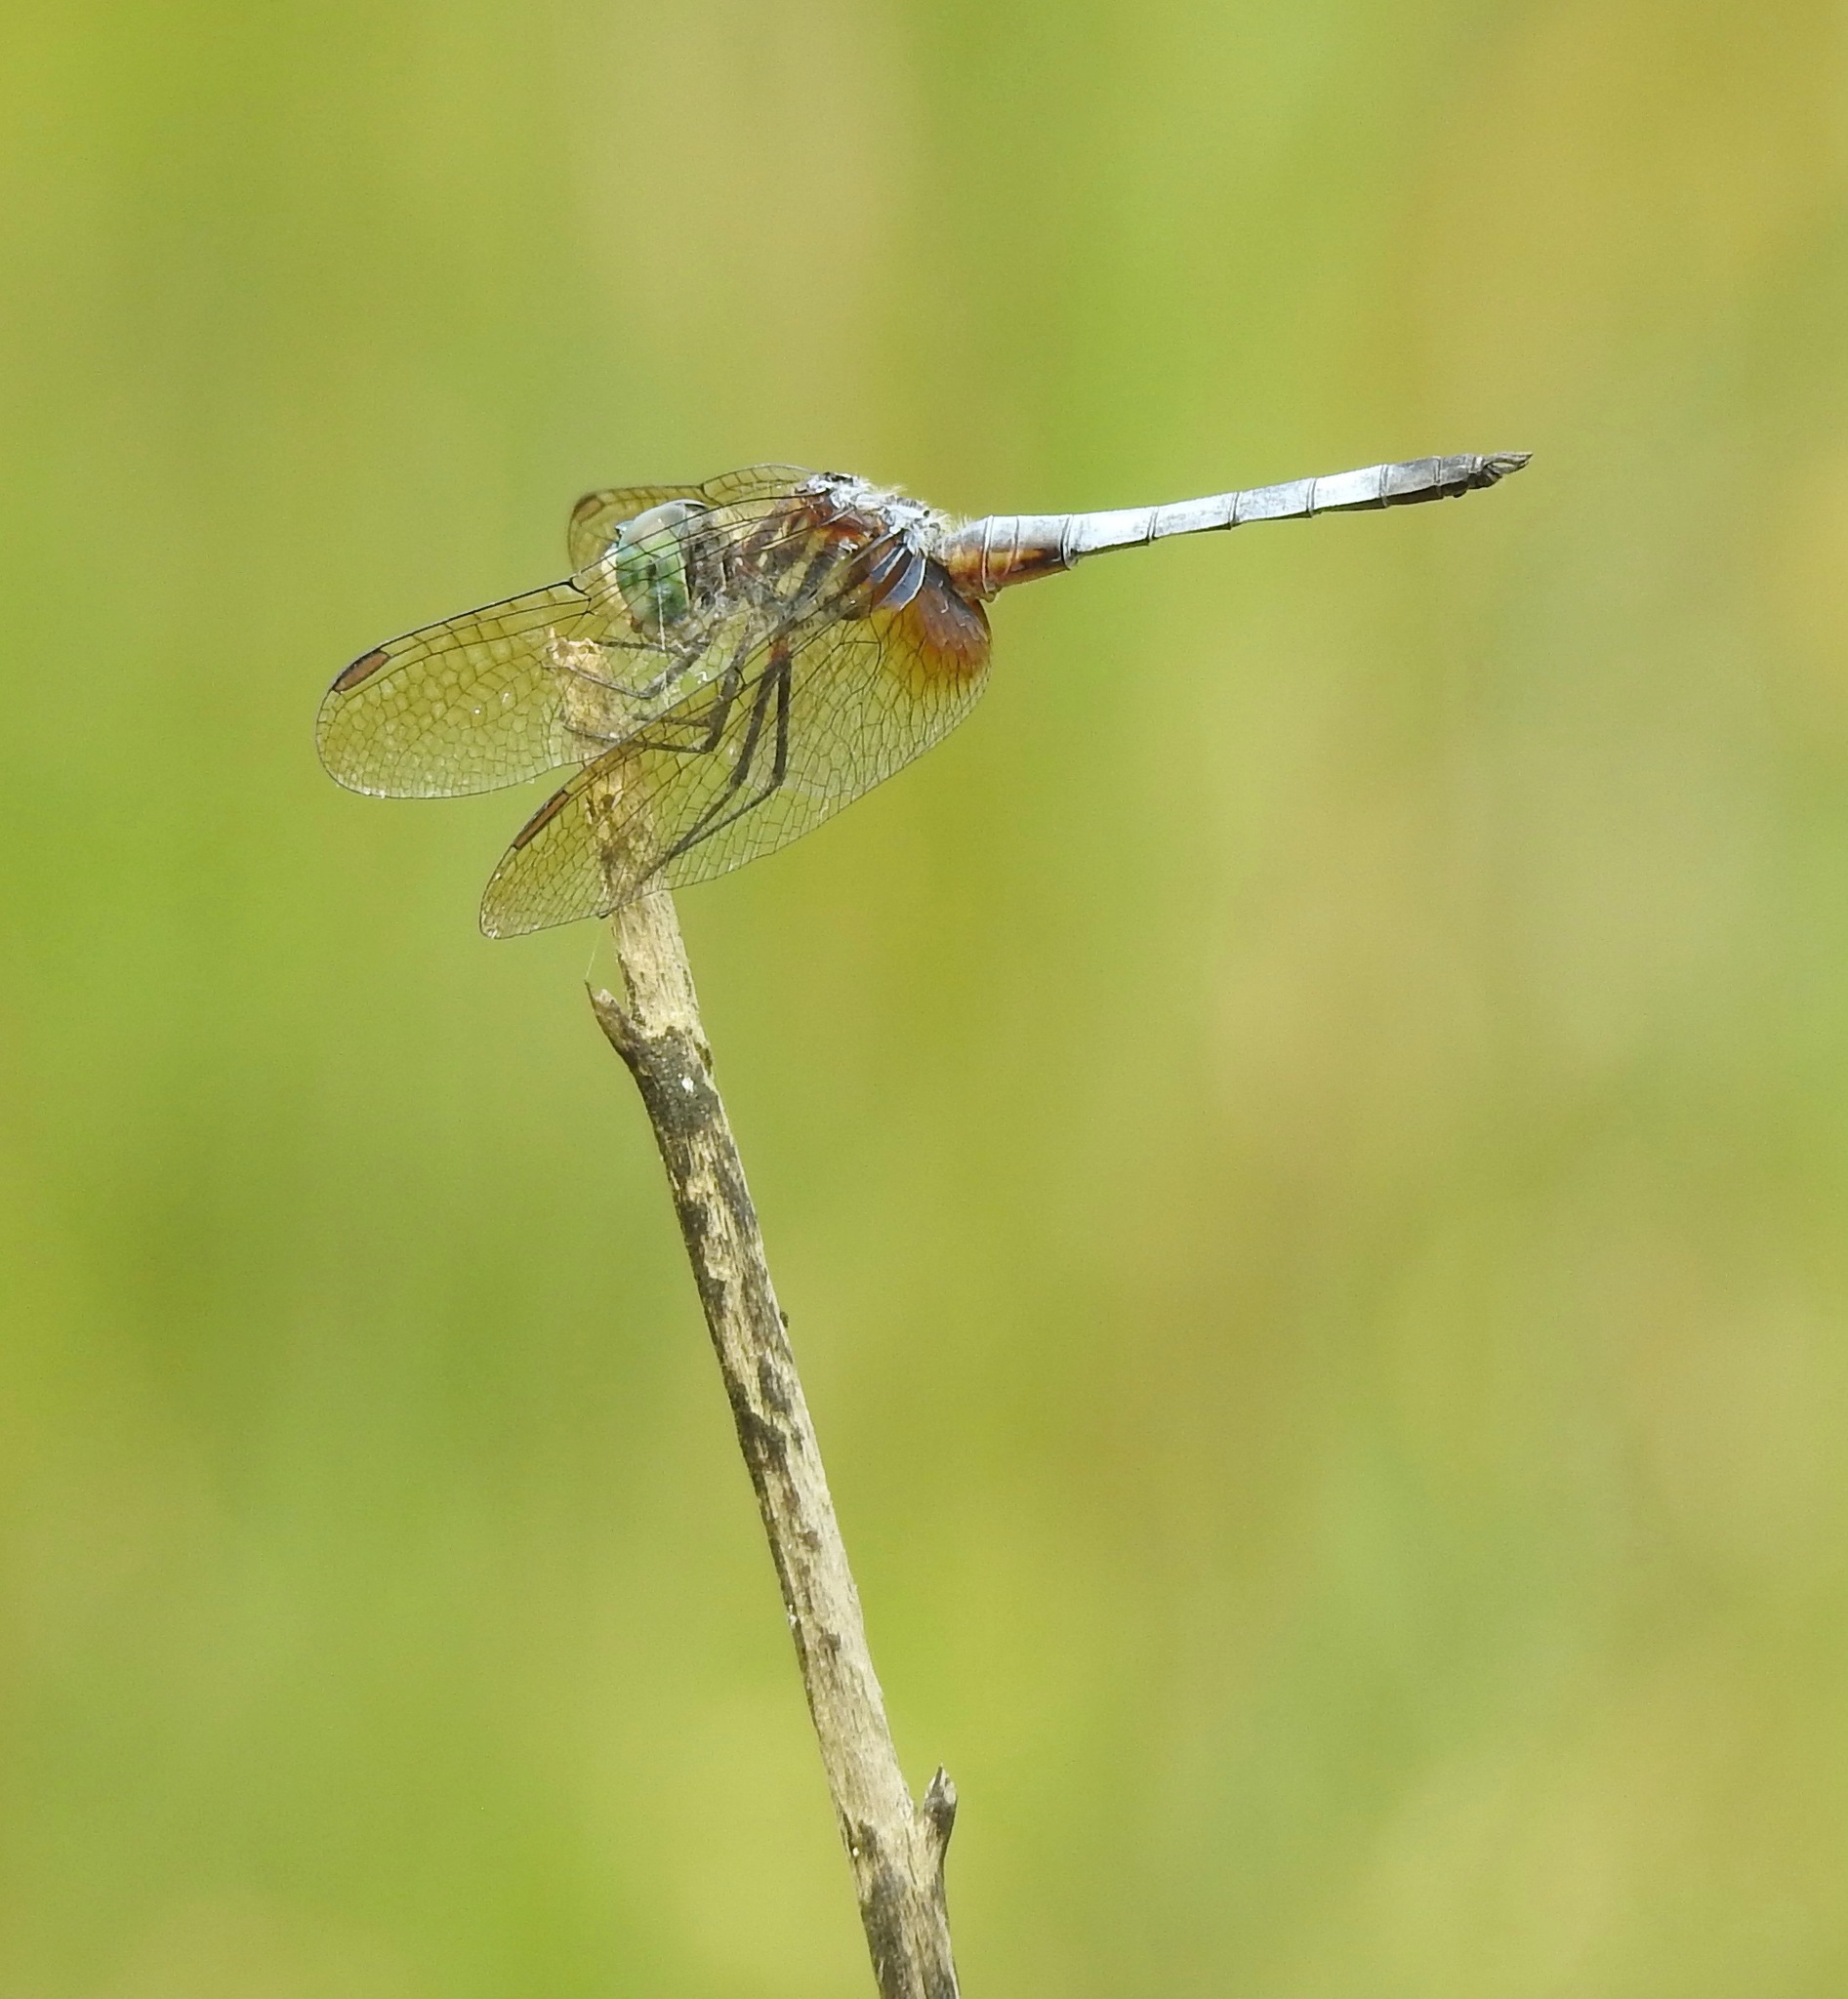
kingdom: Animalia
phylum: Arthropoda
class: Insecta
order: Odonata
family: Libellulidae
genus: Pachydiplax
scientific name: Pachydiplax longipennis
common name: Blue dasher
